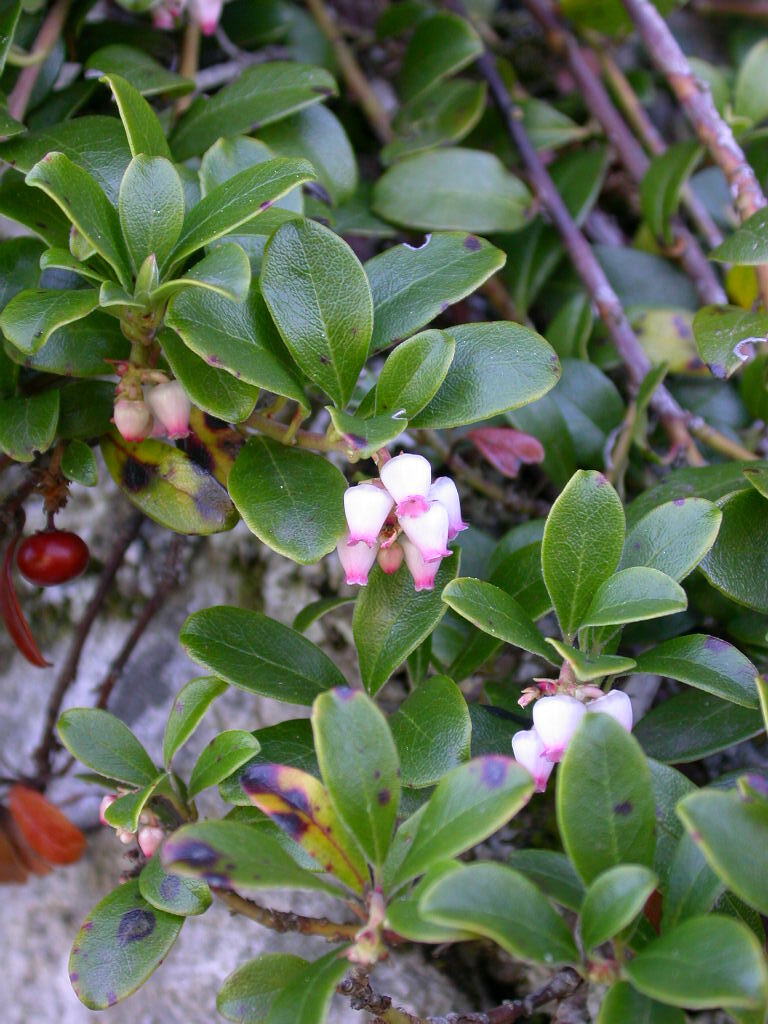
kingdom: Plantae
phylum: Tracheophyta
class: Magnoliopsida
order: Ericales
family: Ericaceae
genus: Arctostaphylos
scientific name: Arctostaphylos uva-ursi
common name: Bearberry
